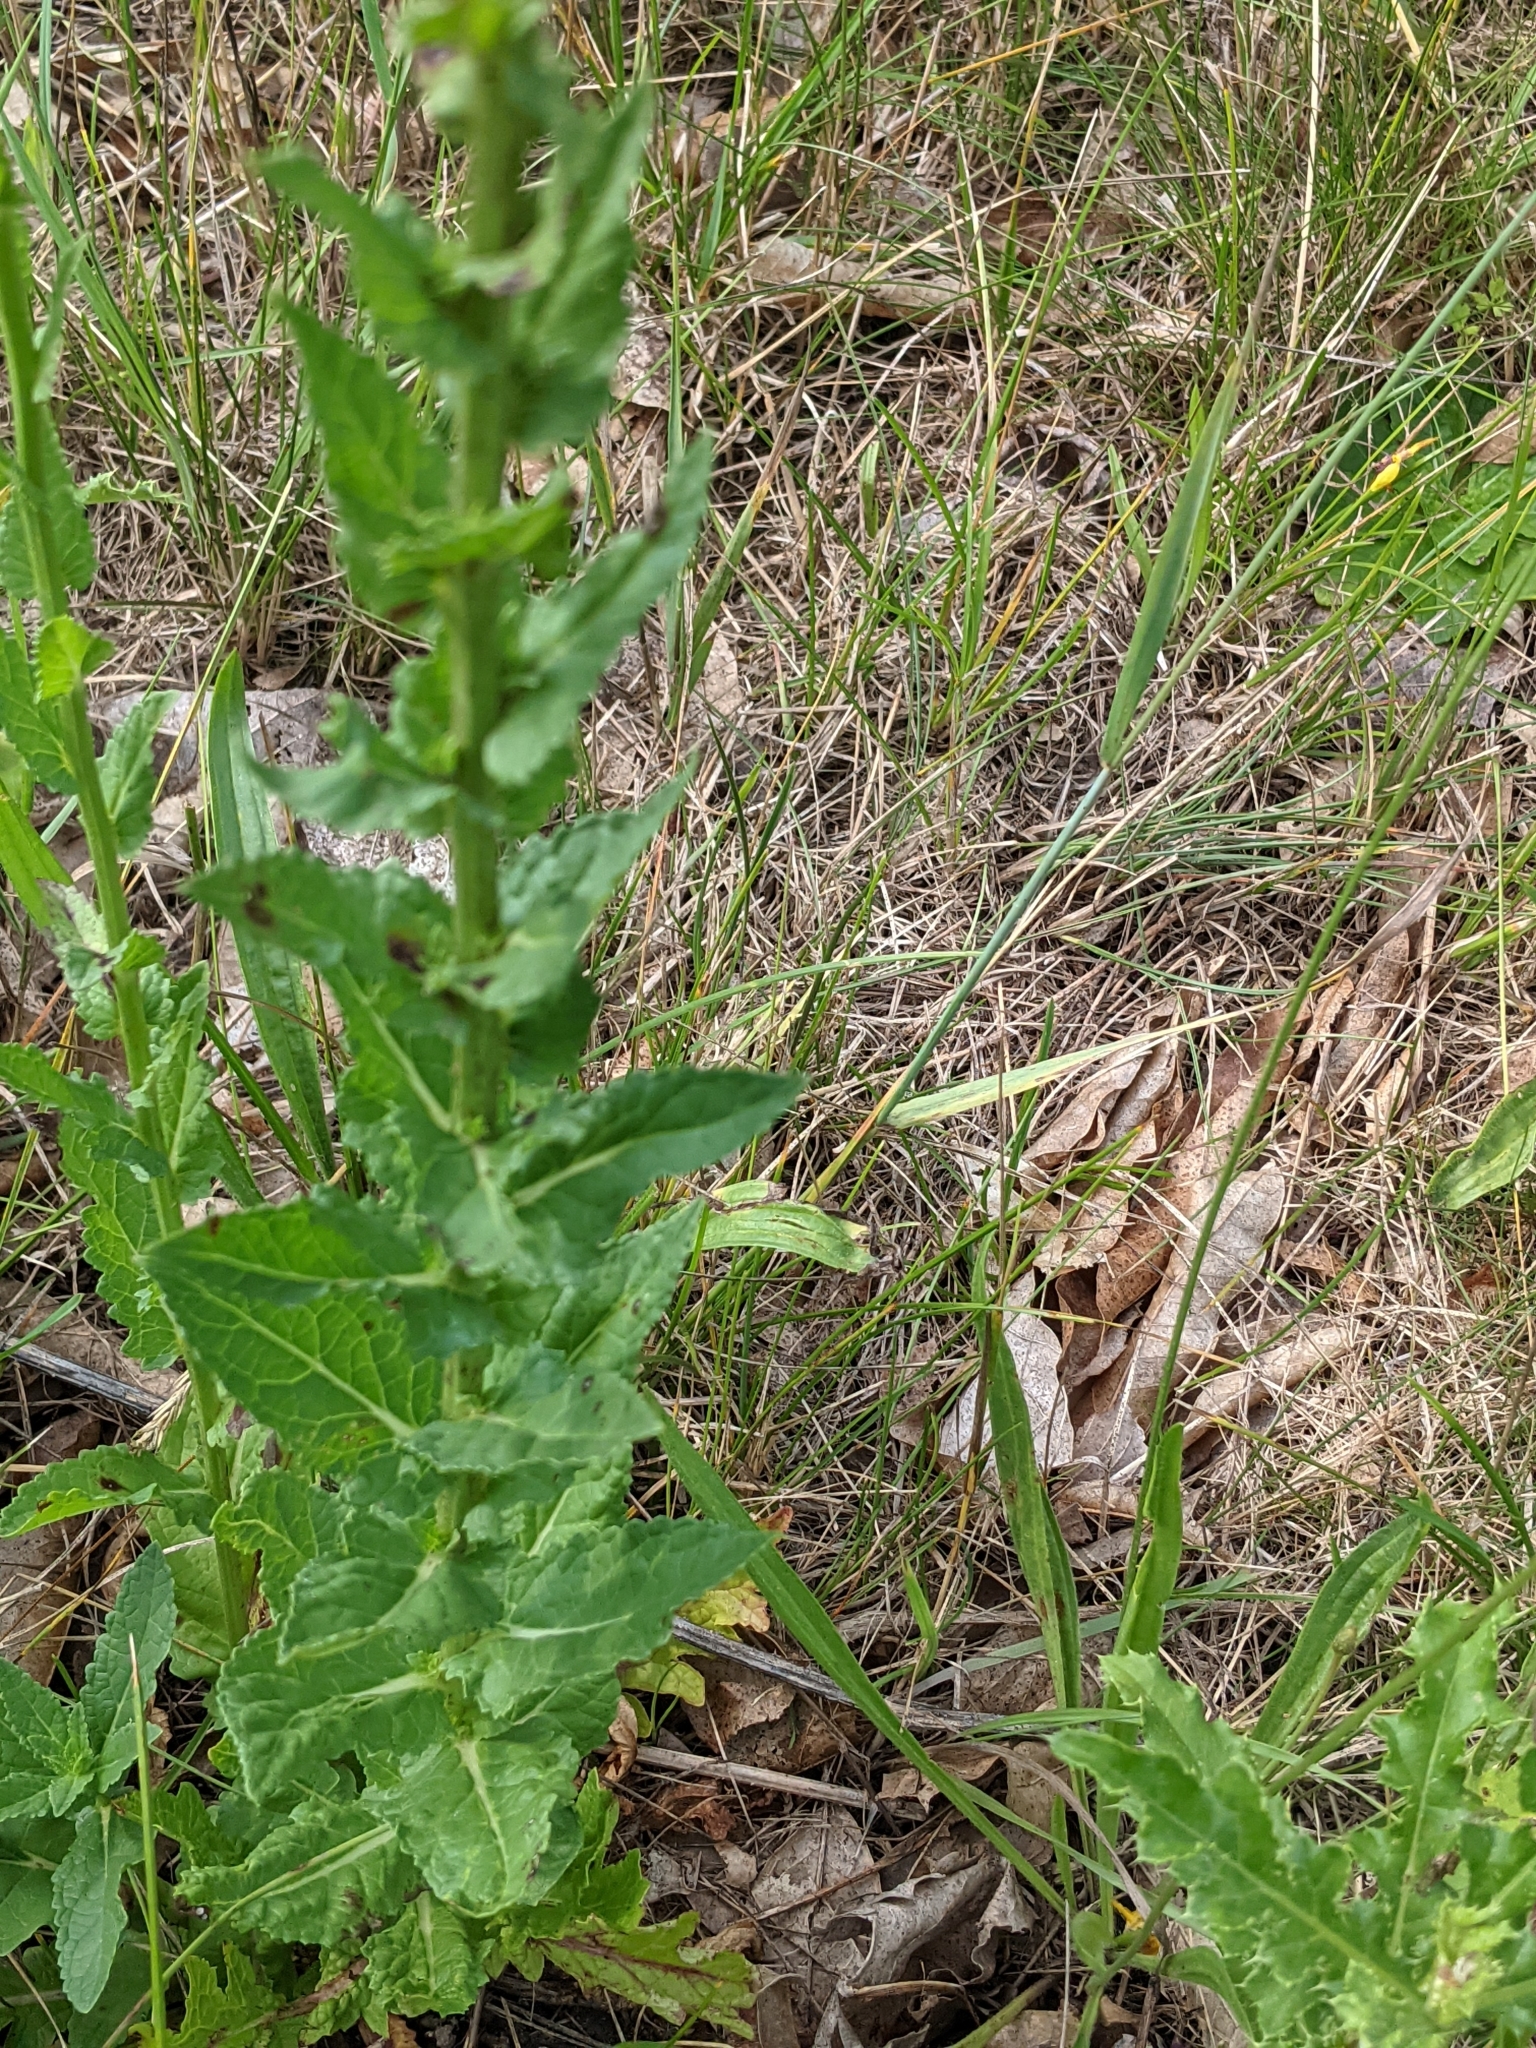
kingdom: Plantae
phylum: Tracheophyta
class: Magnoliopsida
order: Lamiales
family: Scrophulariaceae
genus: Verbascum
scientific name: Verbascum blattaria
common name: Moth mullein
